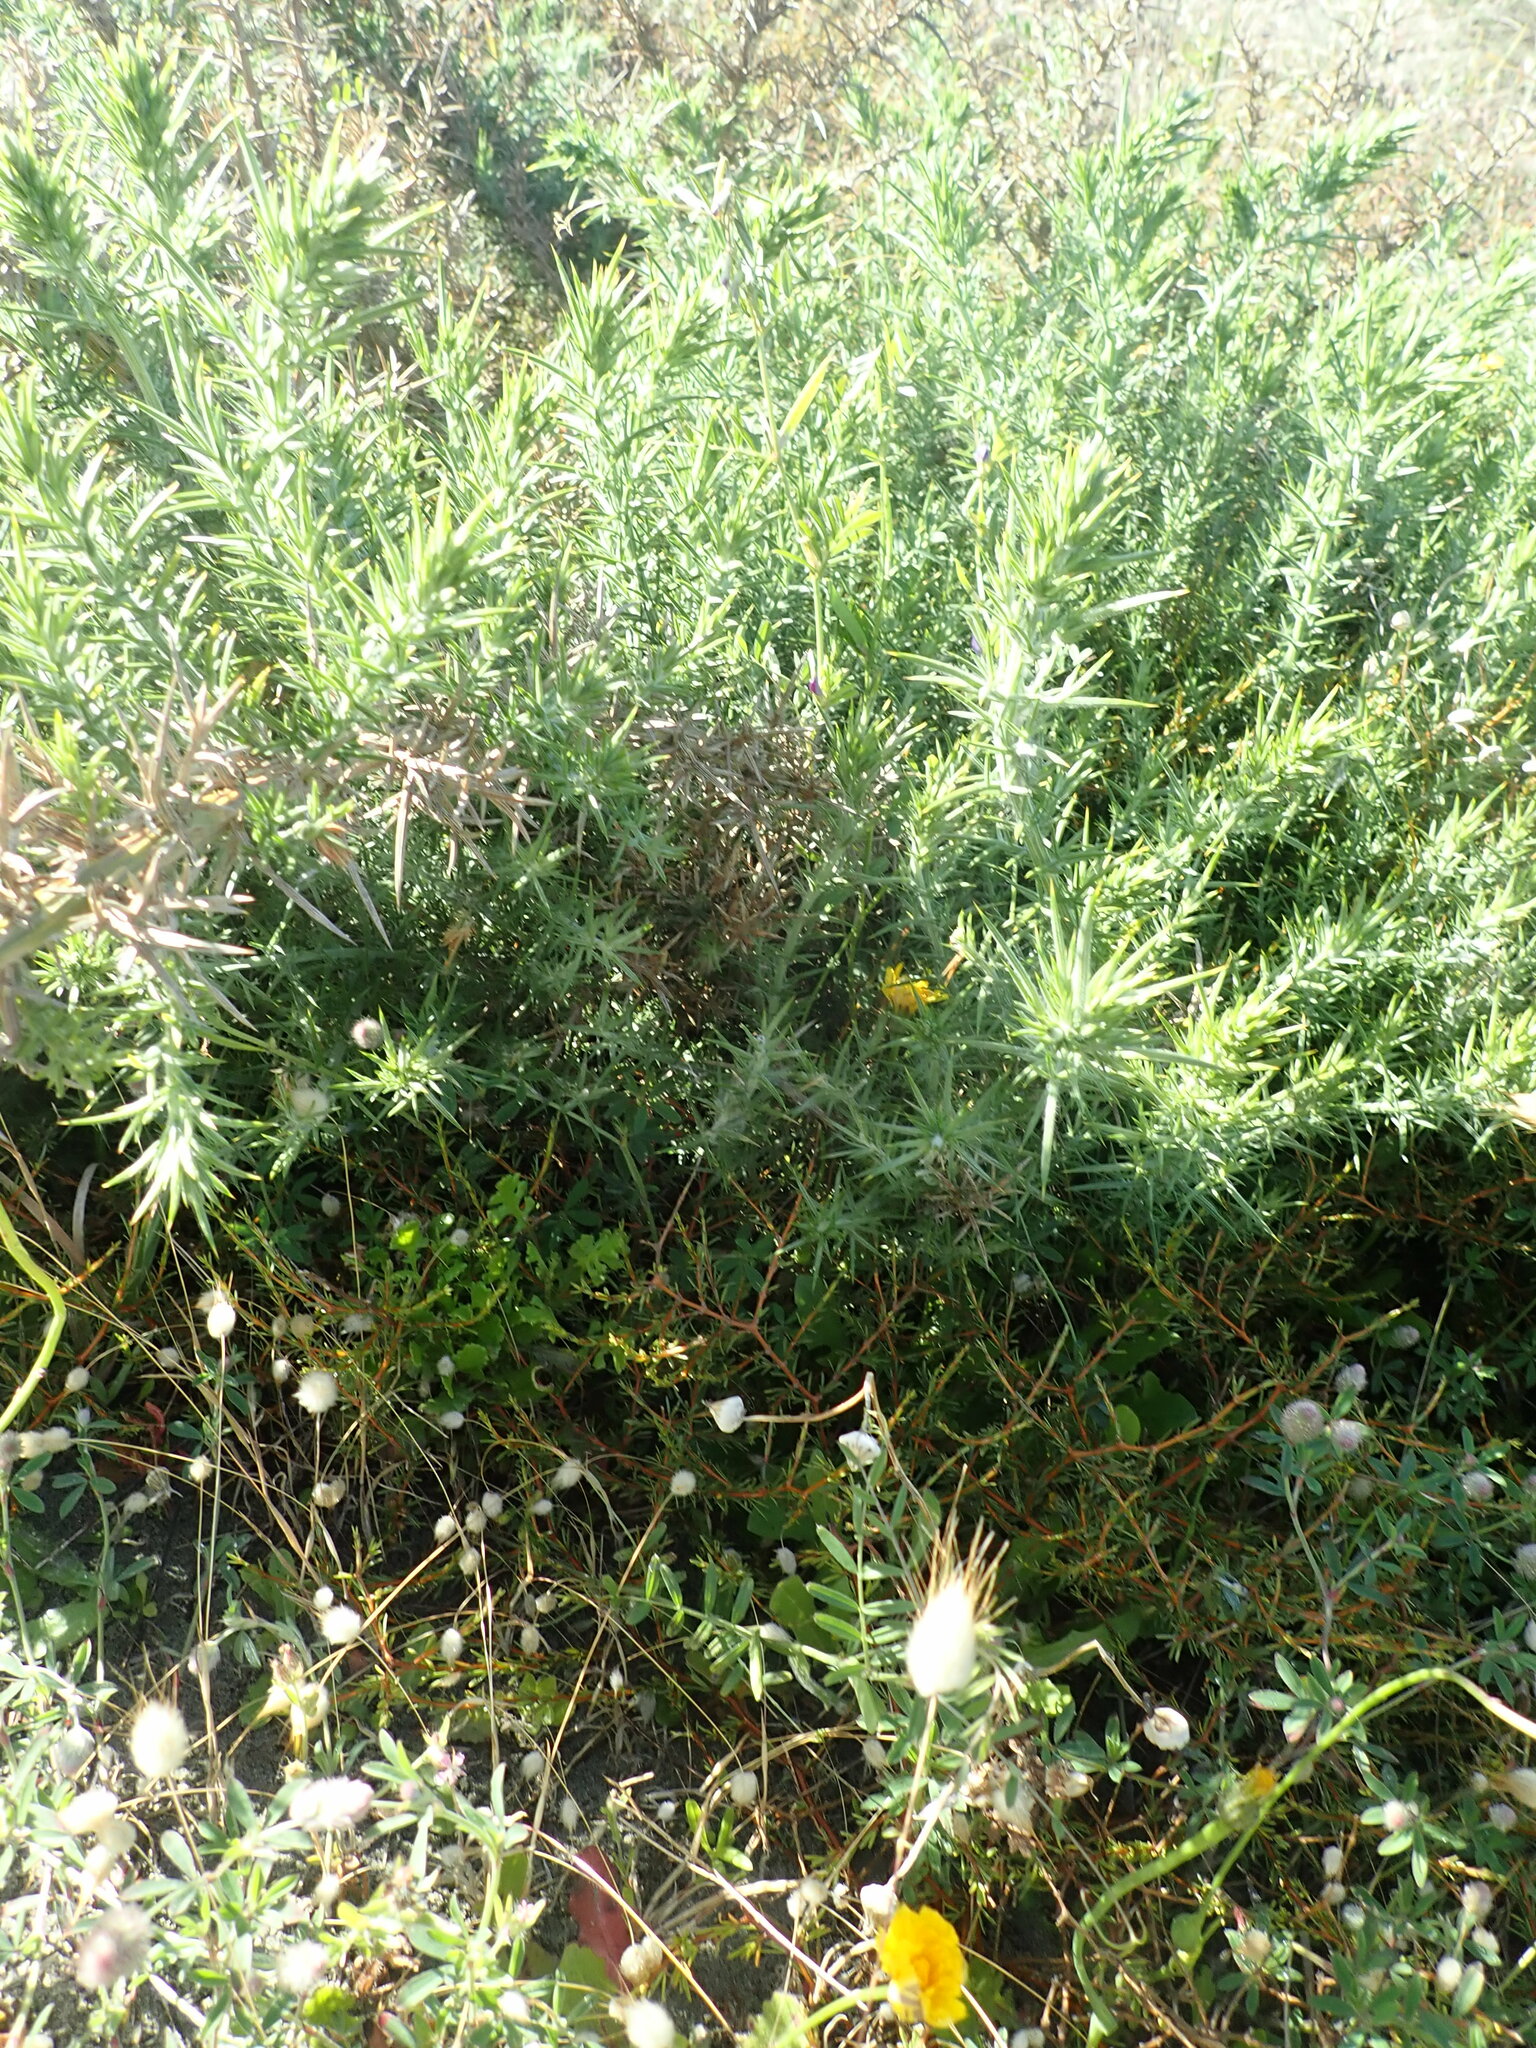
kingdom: Plantae
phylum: Tracheophyta
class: Magnoliopsida
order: Fabales
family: Fabaceae
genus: Ulex
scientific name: Ulex europaeus
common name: Common gorse
